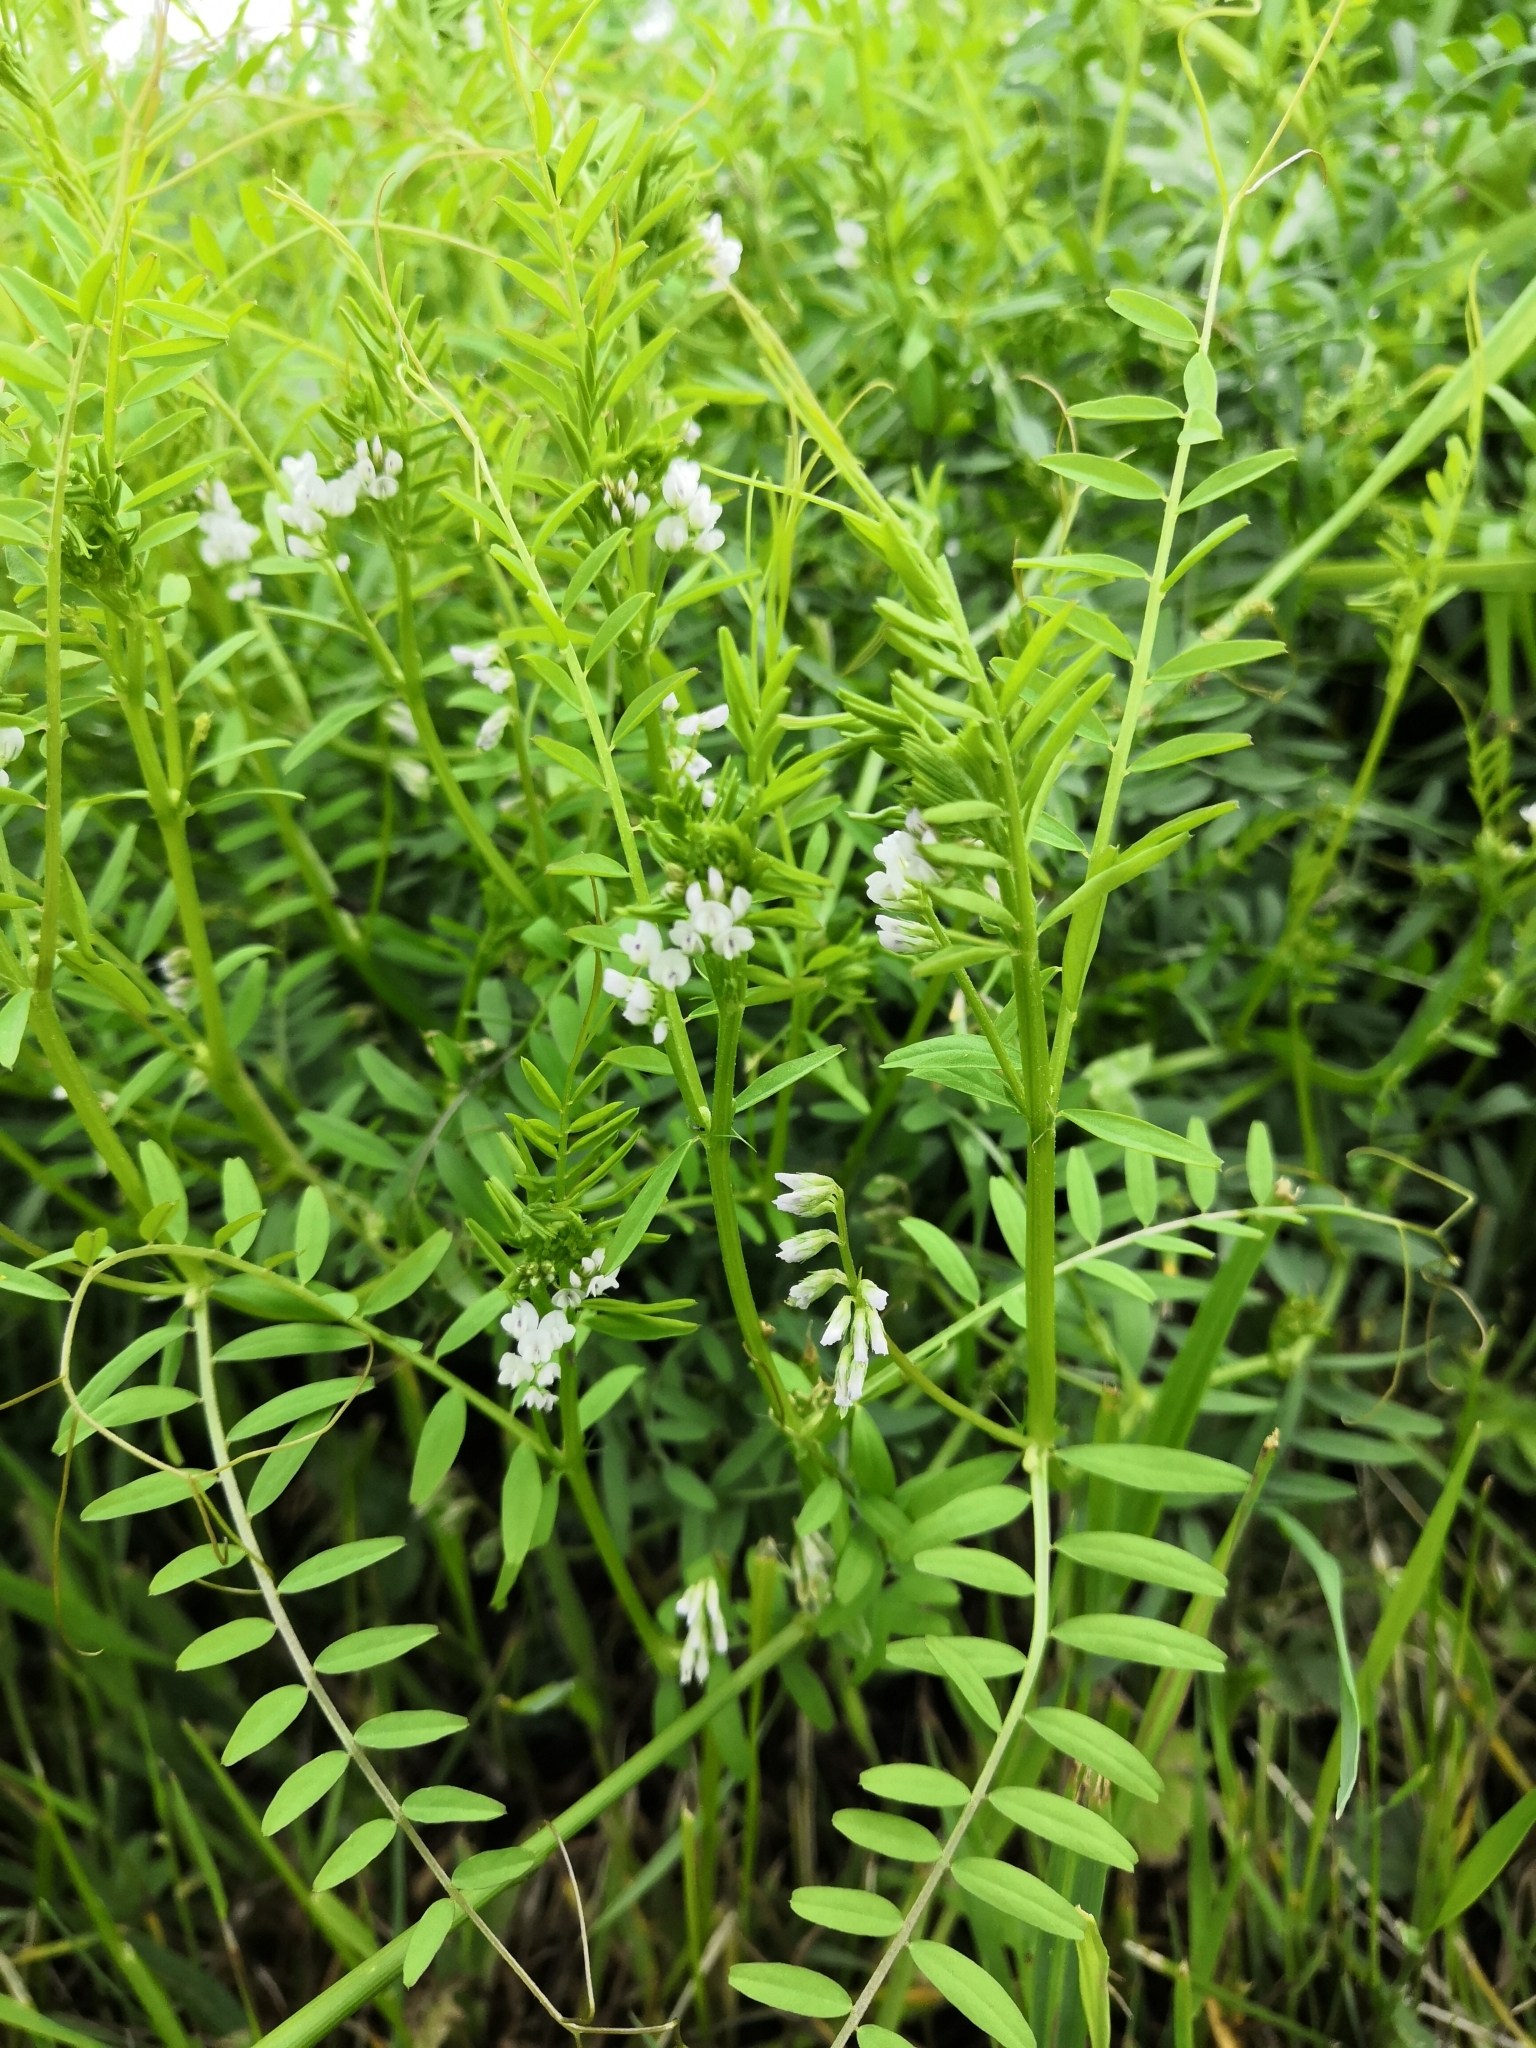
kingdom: Plantae
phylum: Tracheophyta
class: Magnoliopsida
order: Fabales
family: Fabaceae
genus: Vicia
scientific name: Vicia hirsuta
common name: Tiny vetch
